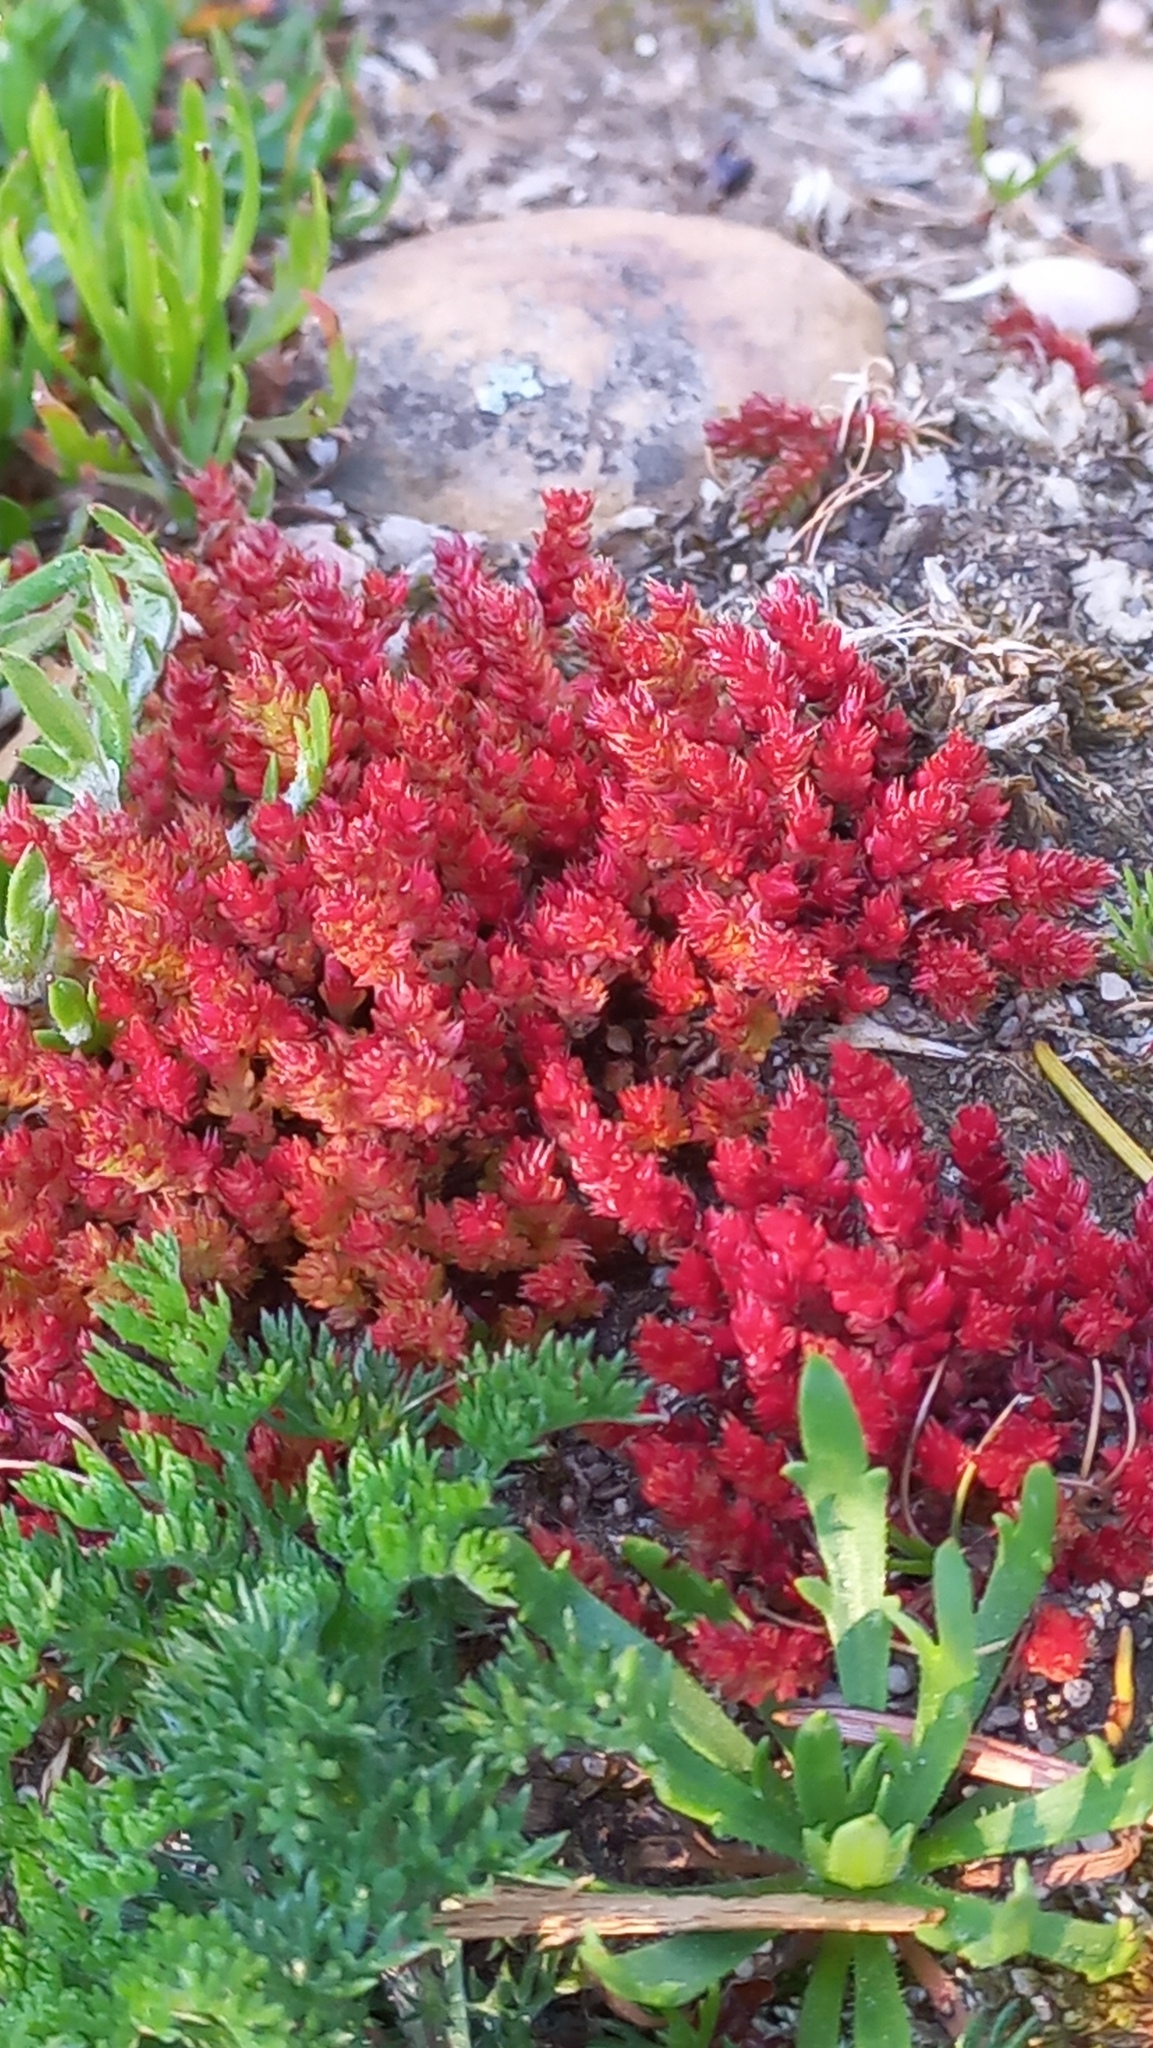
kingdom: Plantae
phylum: Tracheophyta
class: Magnoliopsida
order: Saxifragales
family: Crassulaceae
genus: Crassula
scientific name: Crassula tillaea
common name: Mossy stonecrop
